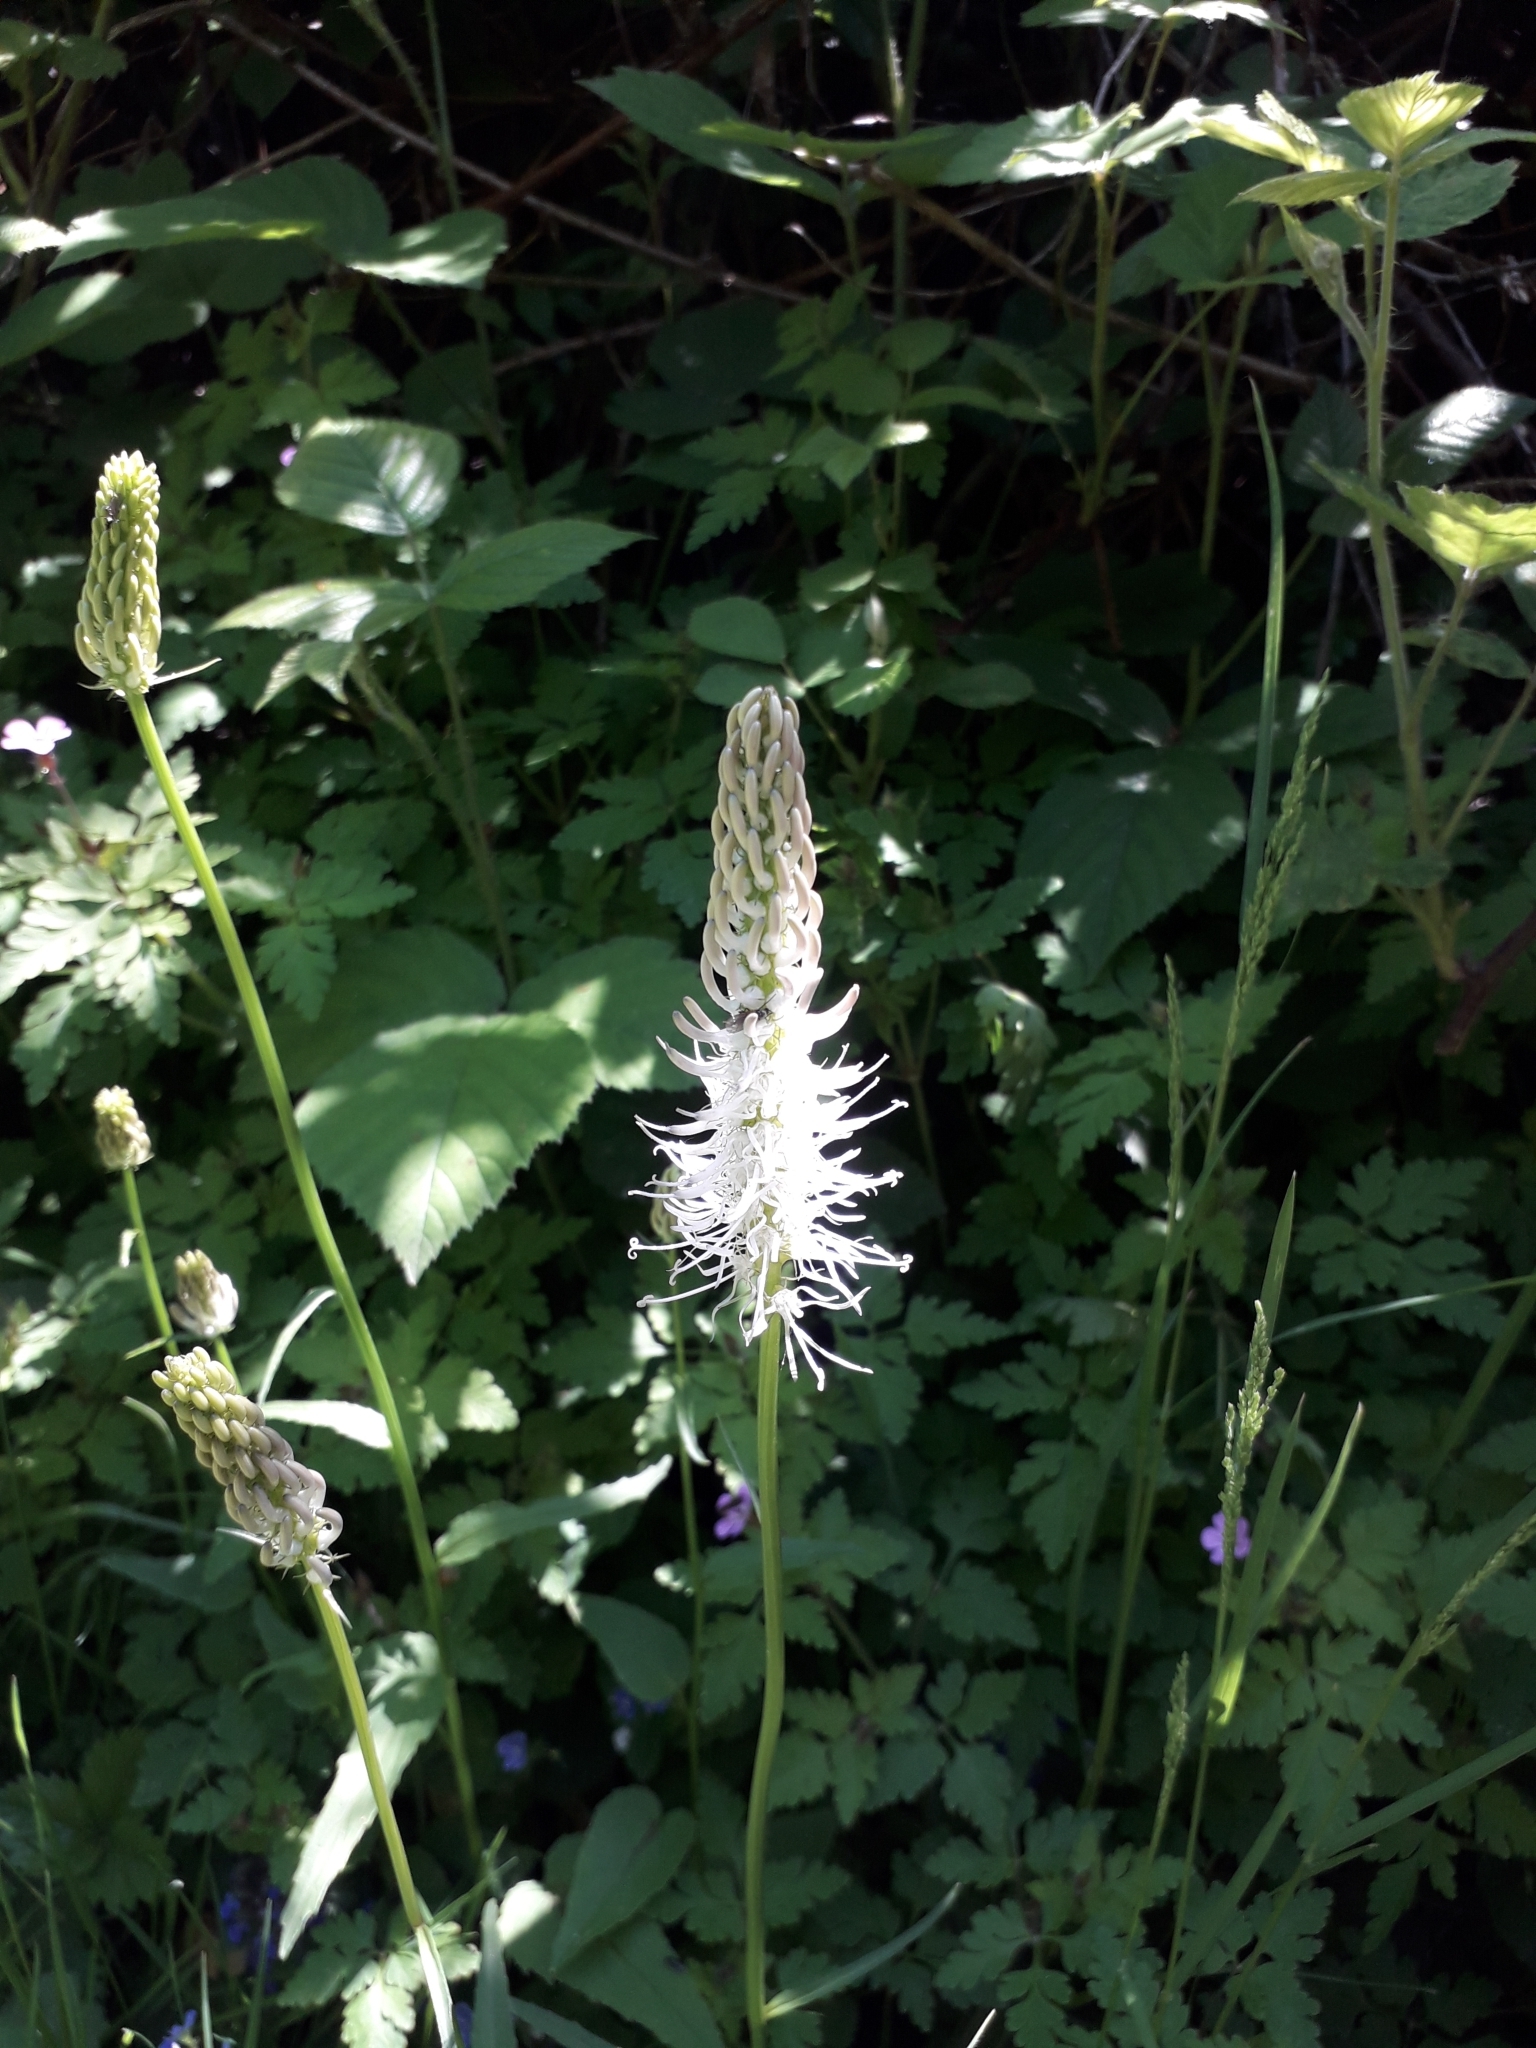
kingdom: Plantae
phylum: Tracheophyta
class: Magnoliopsida
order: Asterales
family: Campanulaceae
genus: Phyteuma
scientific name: Phyteuma spicatum
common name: Spiked rampion
